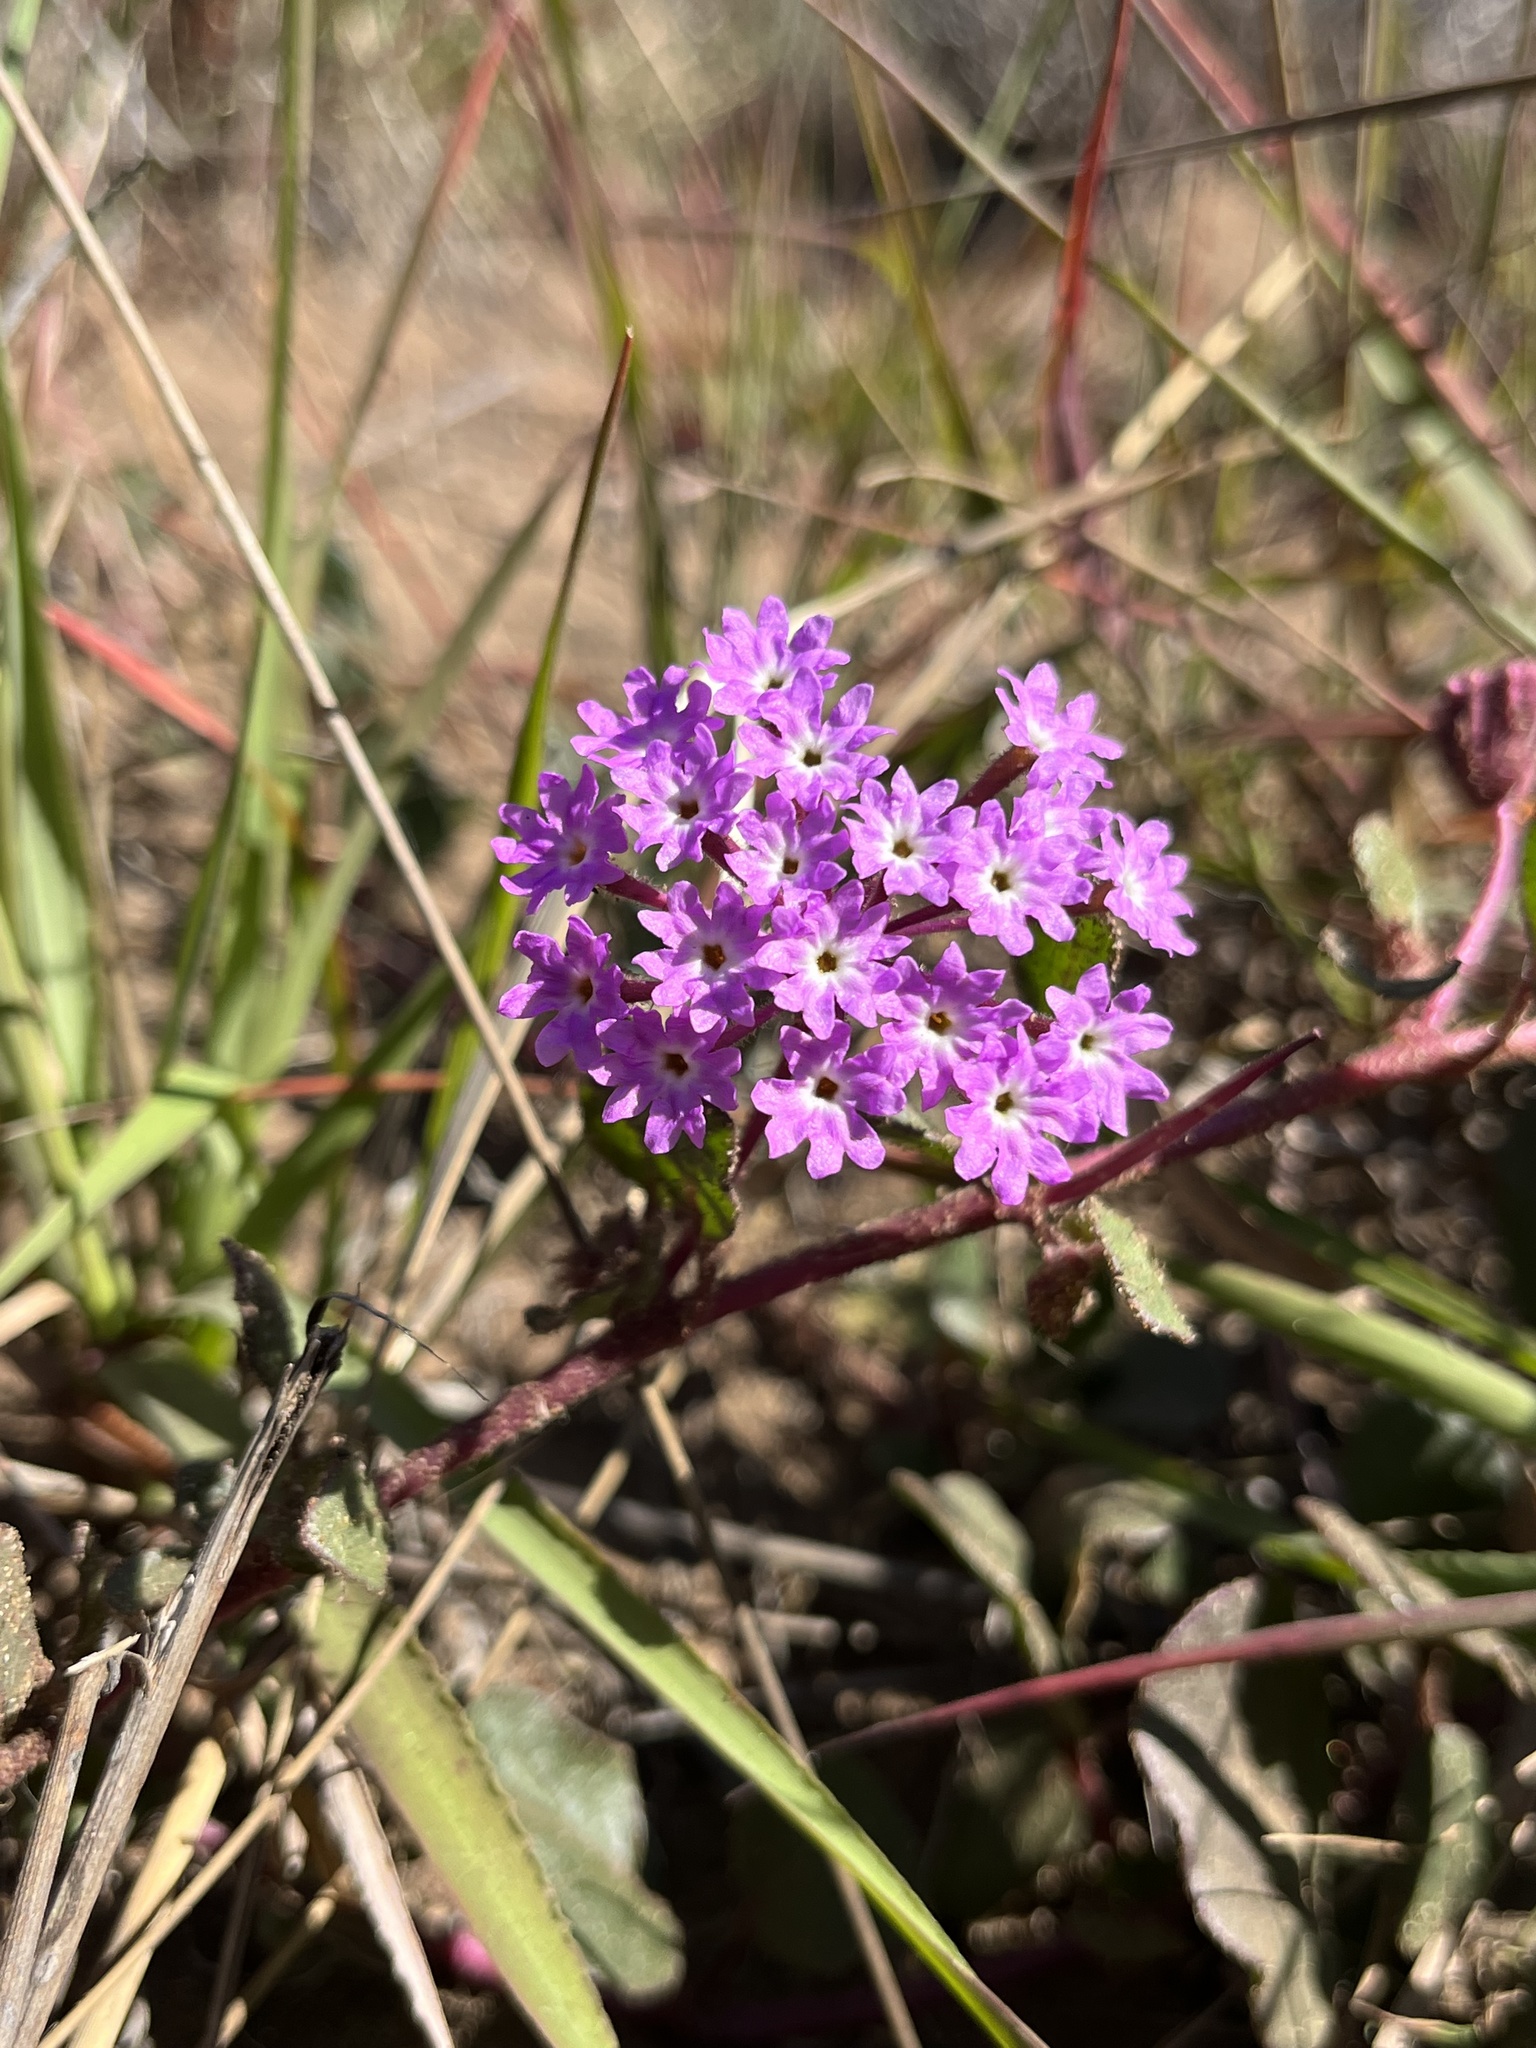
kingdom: Plantae
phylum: Tracheophyta
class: Magnoliopsida
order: Caryophyllales
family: Nyctaginaceae
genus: Abronia
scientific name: Abronia umbellata
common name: Sand-verbena
